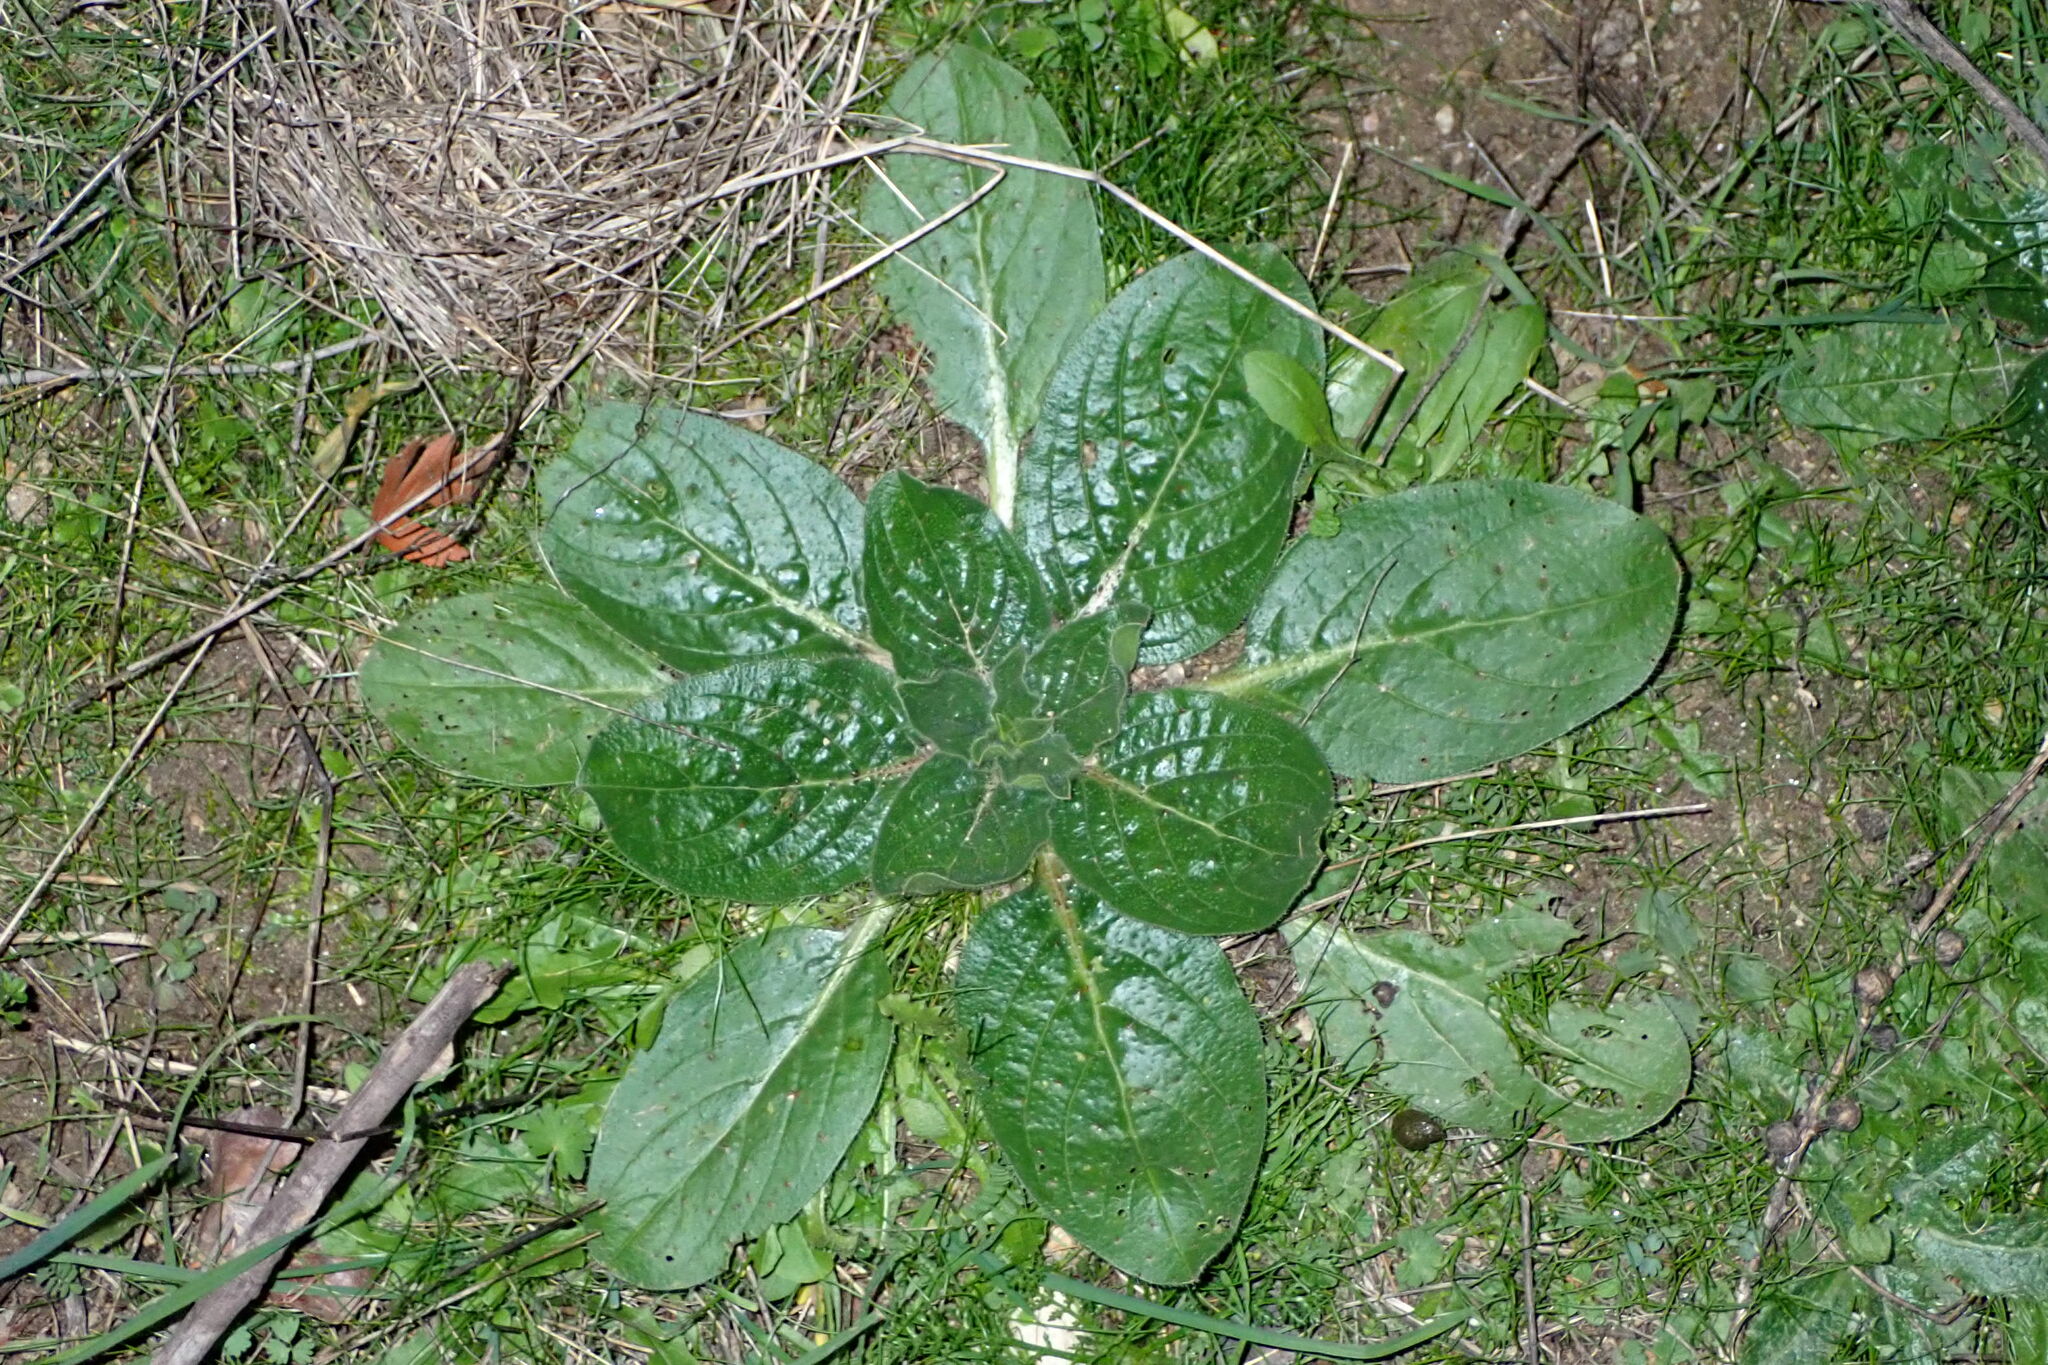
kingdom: Plantae
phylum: Tracheophyta
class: Magnoliopsida
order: Boraginales
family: Boraginaceae
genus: Echium
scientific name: Echium plantagineum
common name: Purple viper's-bugloss
